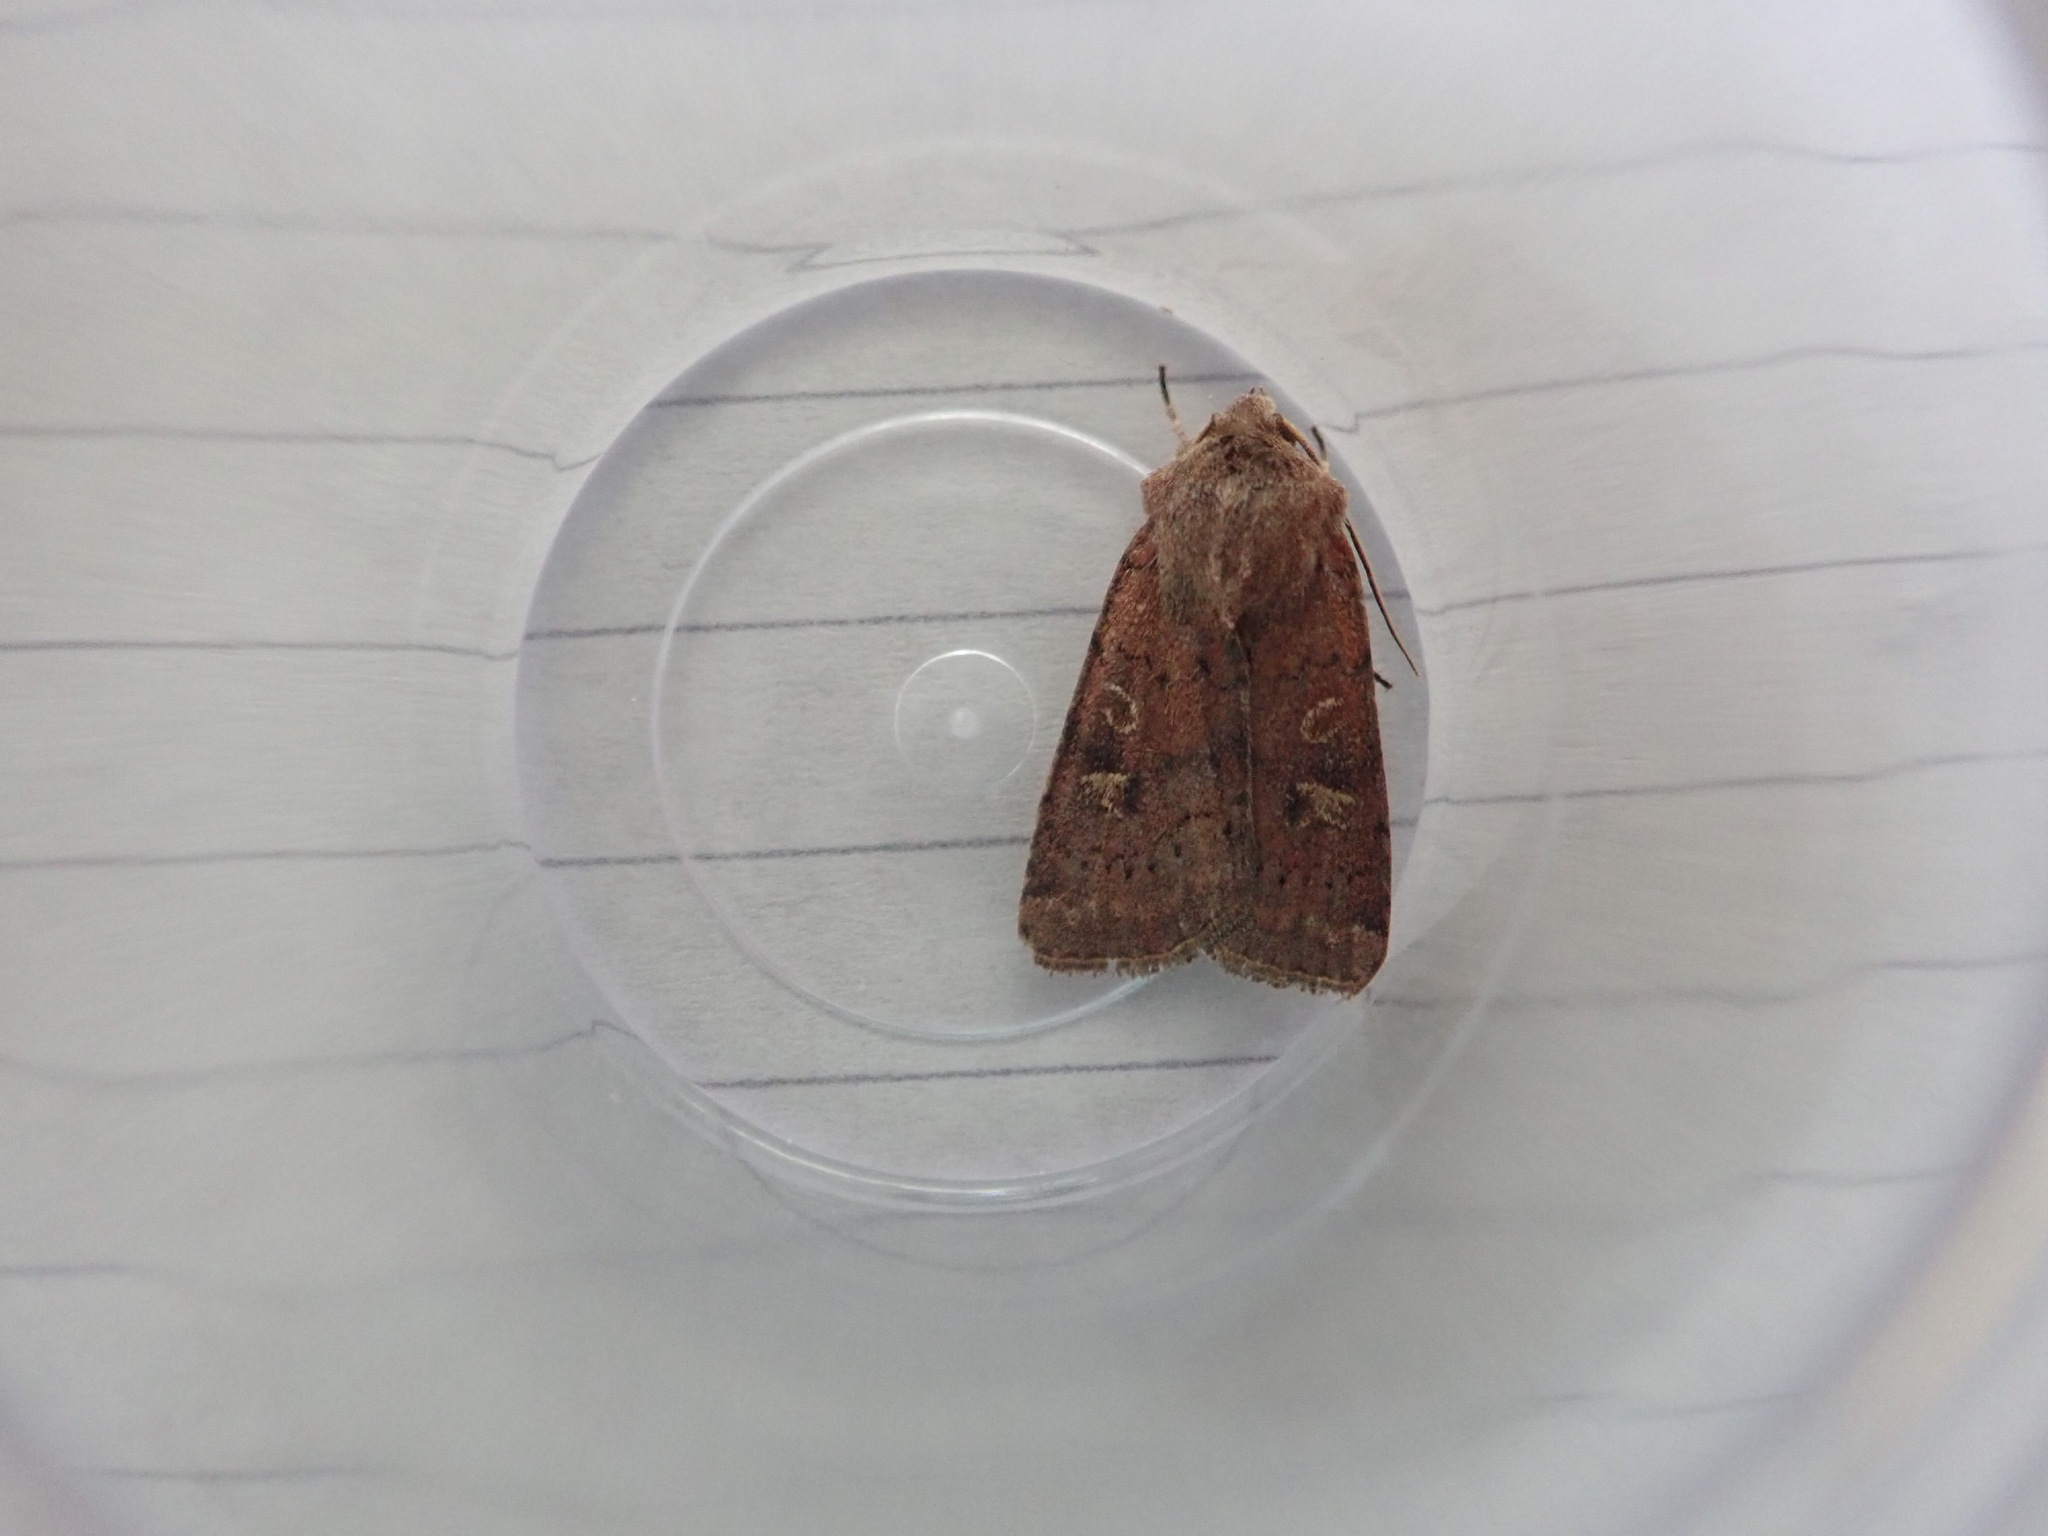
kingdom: Animalia
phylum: Arthropoda
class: Insecta
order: Lepidoptera
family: Noctuidae
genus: Xestia
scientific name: Xestia xanthographa
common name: Square-spot rustic
